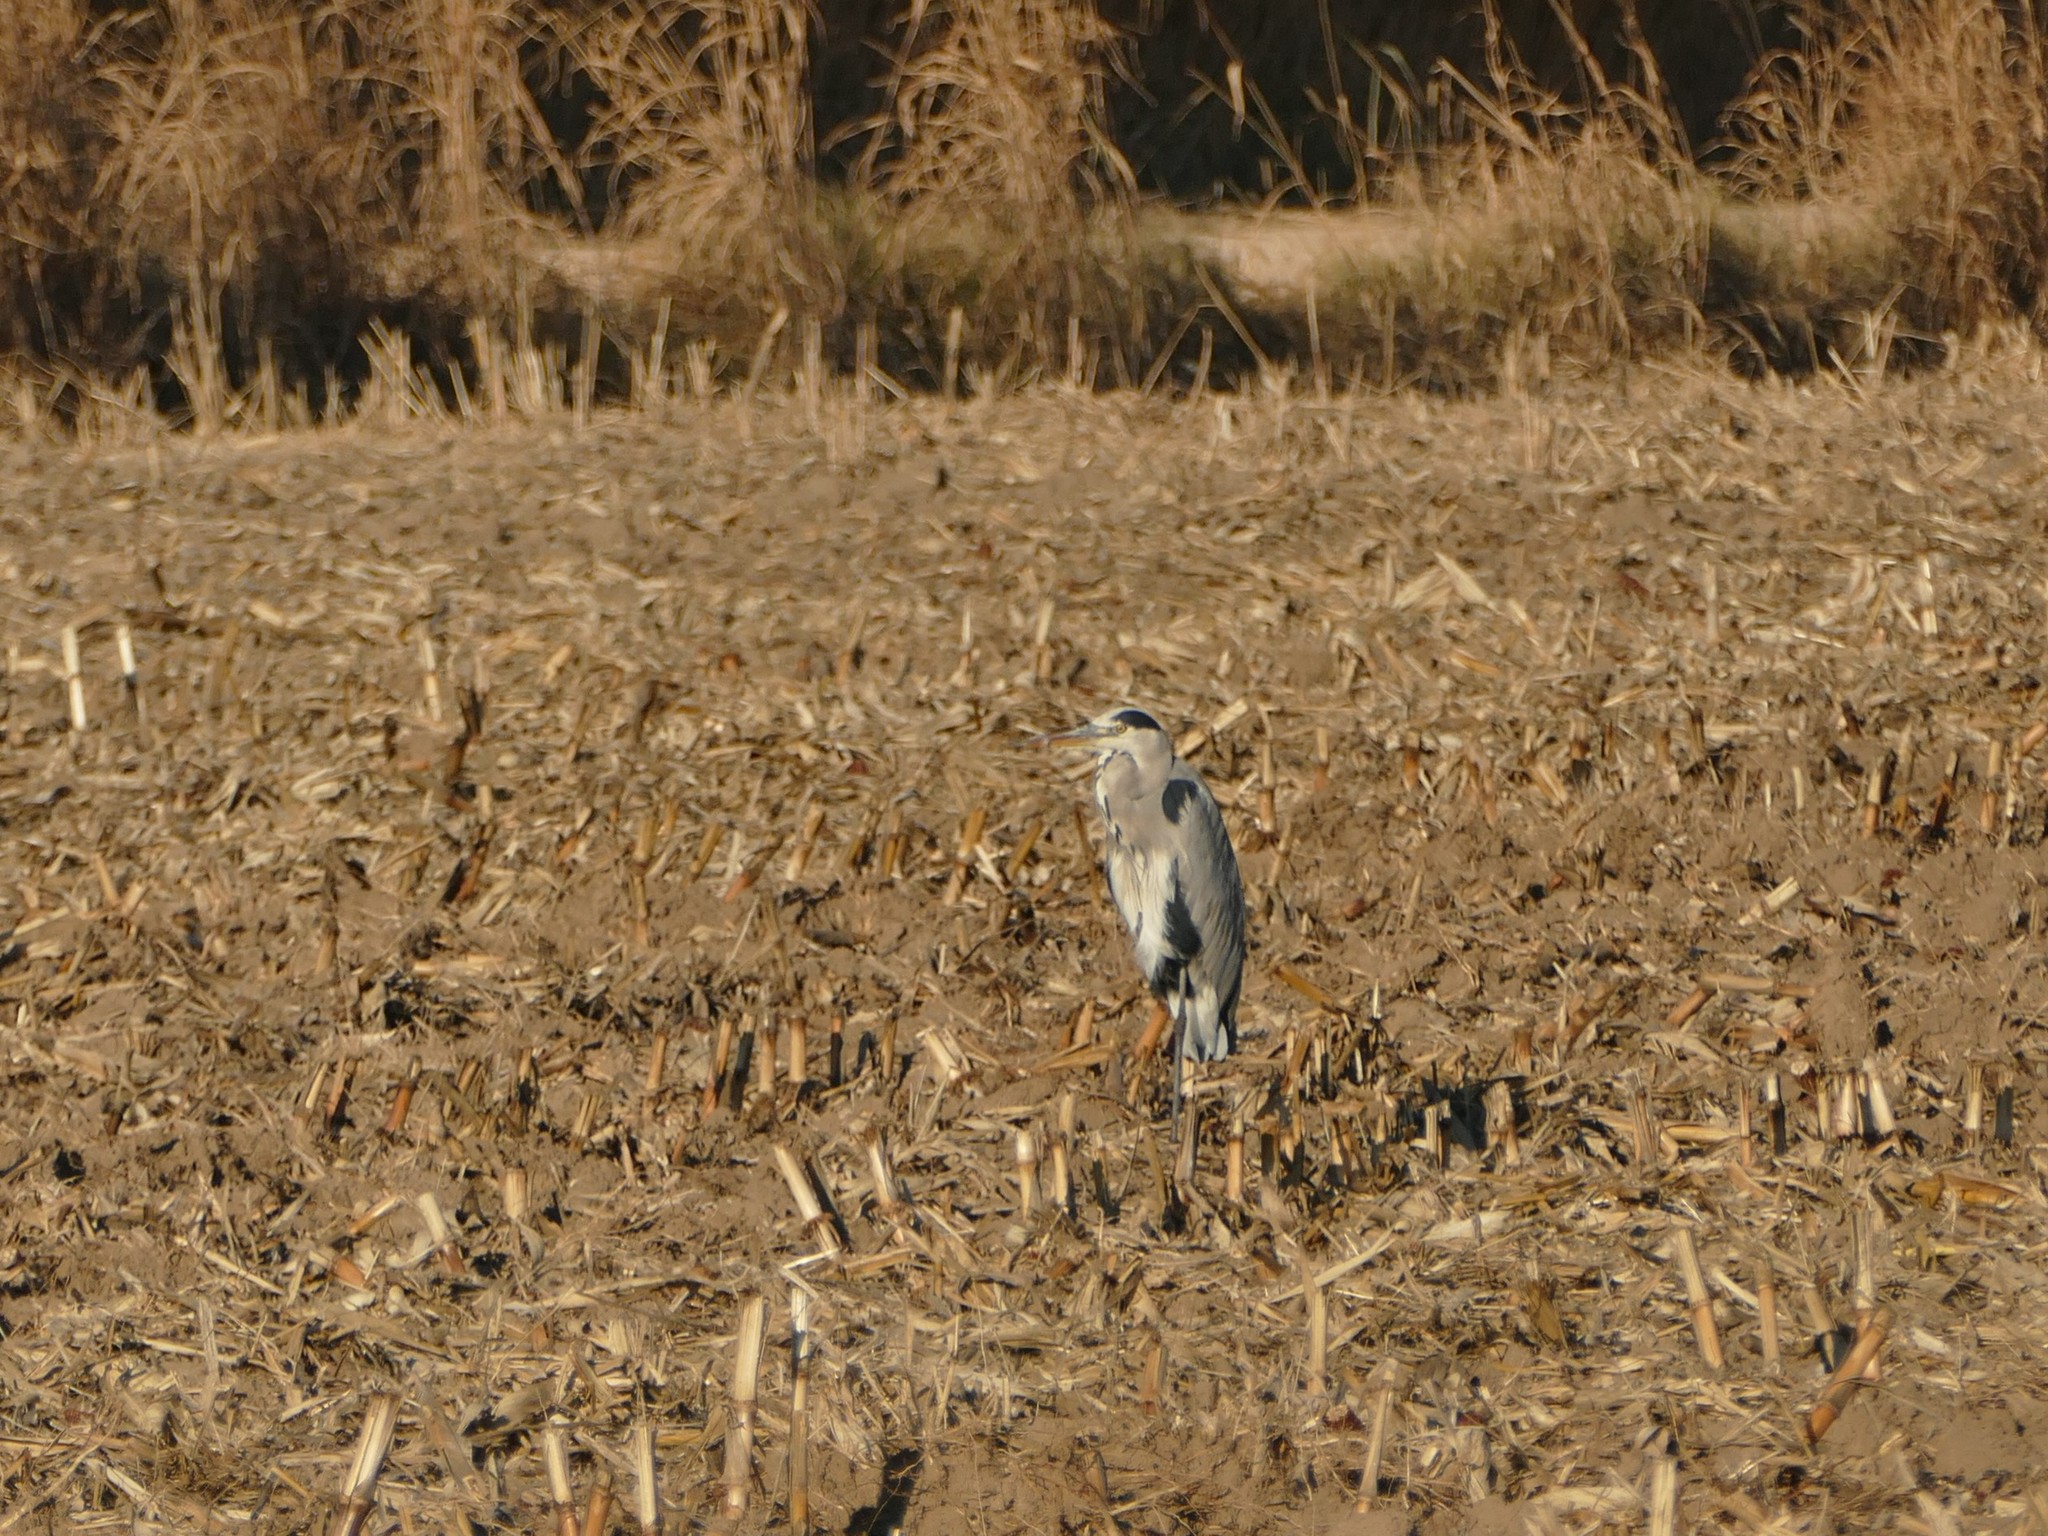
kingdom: Animalia
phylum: Chordata
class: Aves
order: Pelecaniformes
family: Ardeidae
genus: Ardea
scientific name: Ardea cinerea
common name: Grey heron
